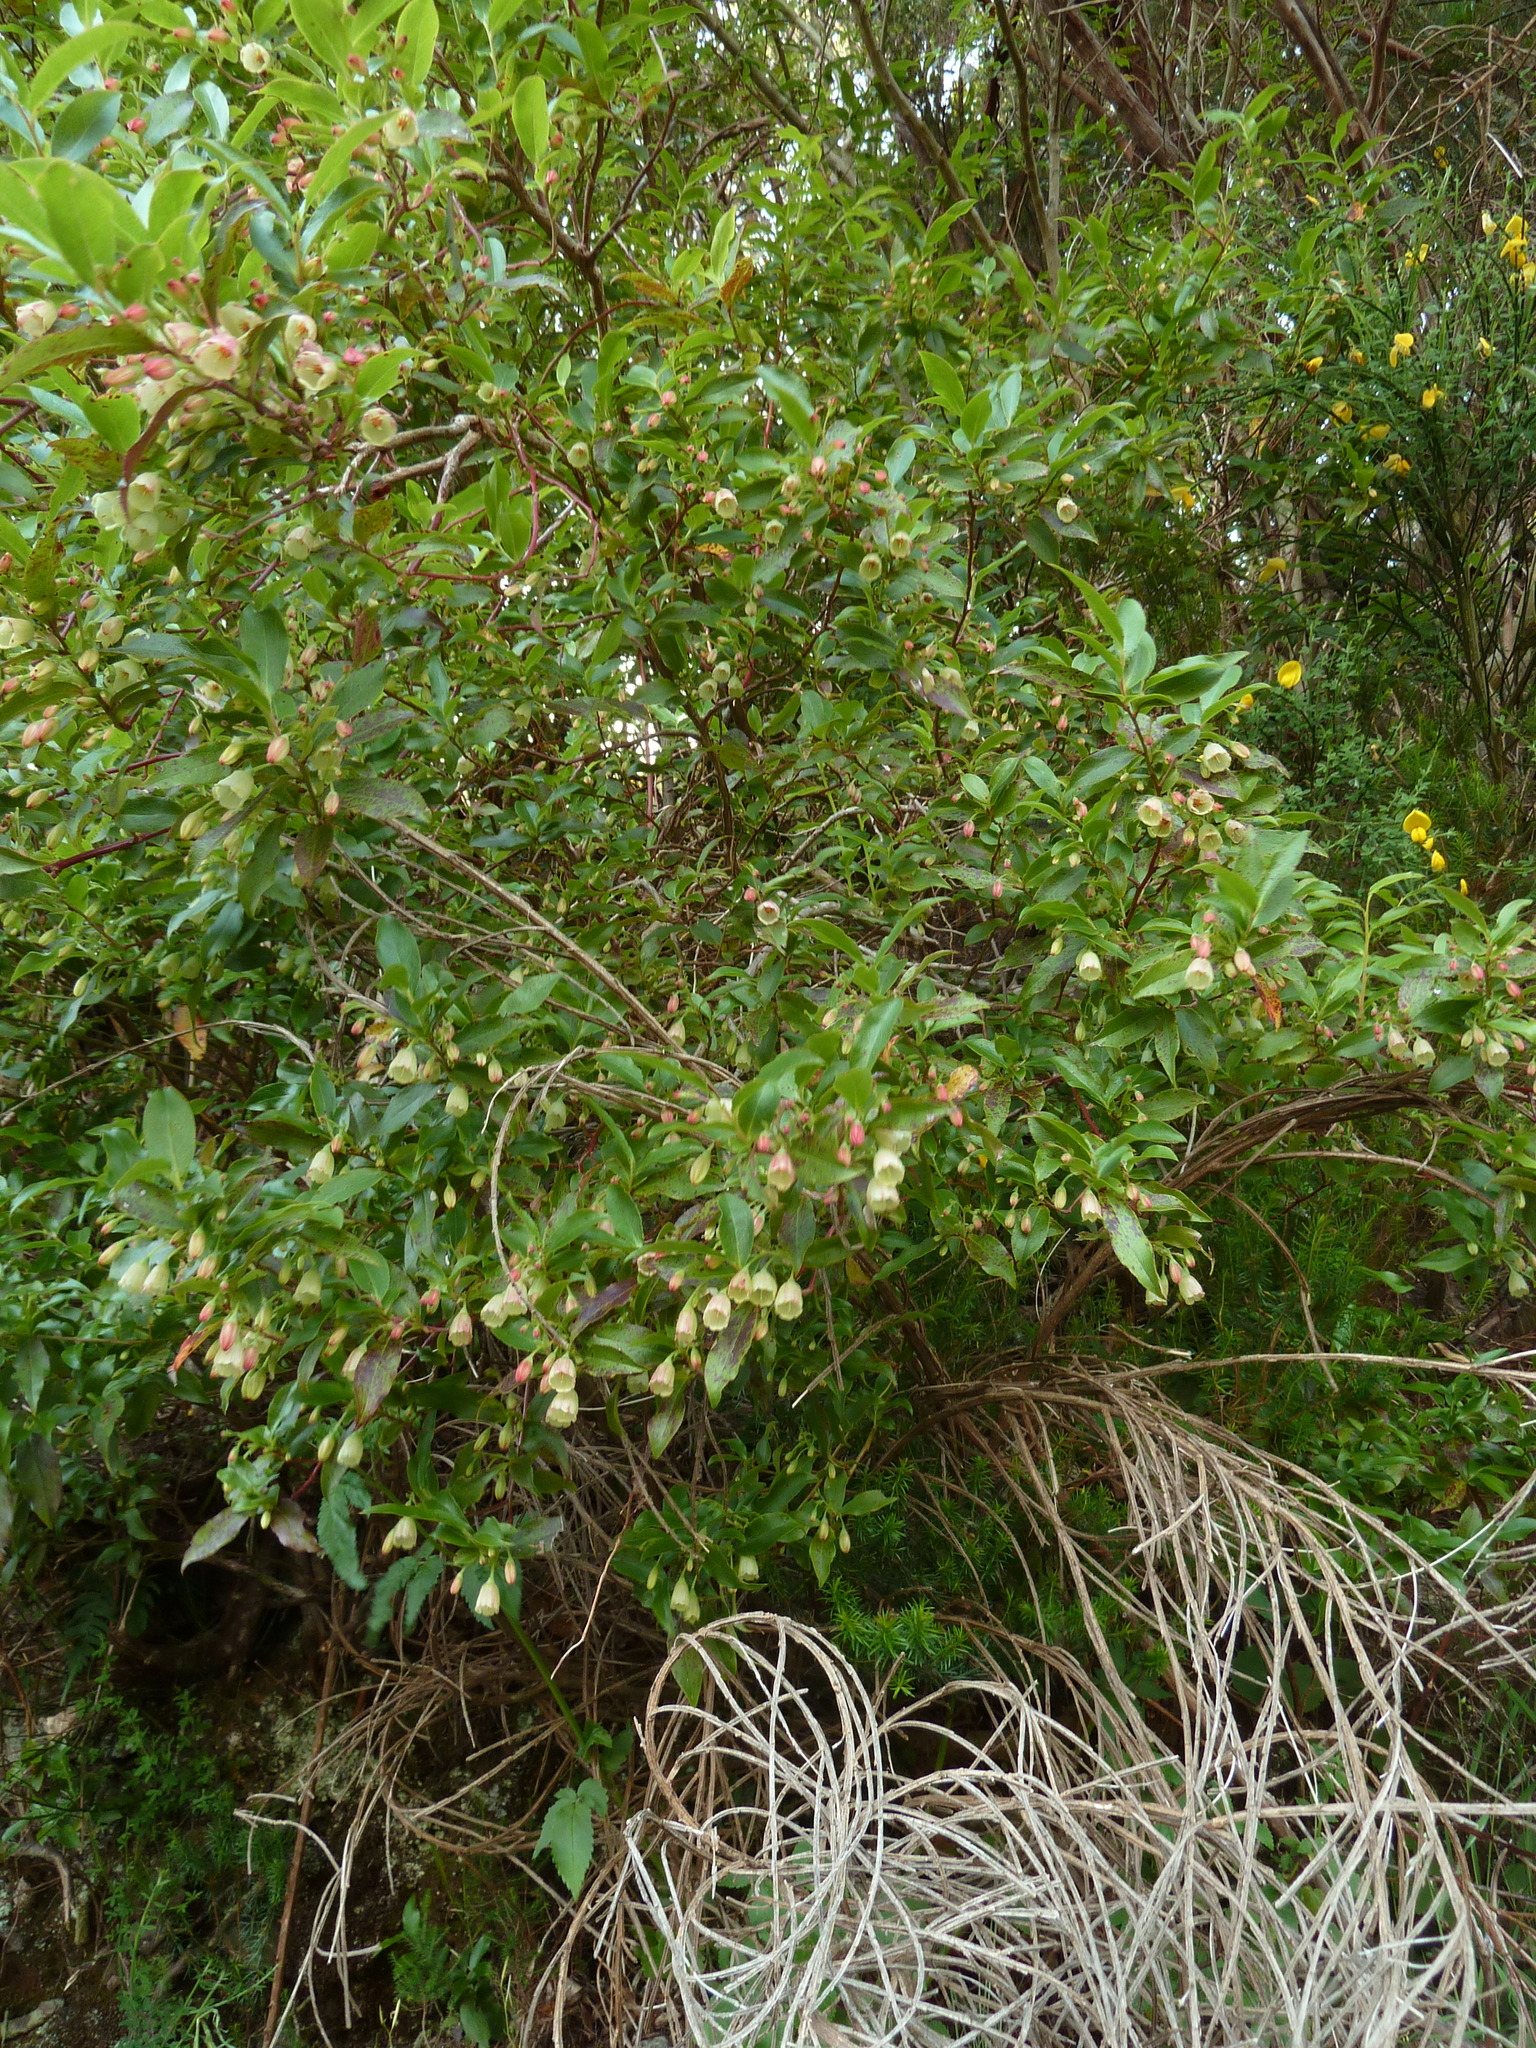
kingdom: Plantae
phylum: Tracheophyta
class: Magnoliopsida
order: Ericales
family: Ericaceae
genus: Vaccinium
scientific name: Vaccinium padifolium
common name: Madeiran blueberry
